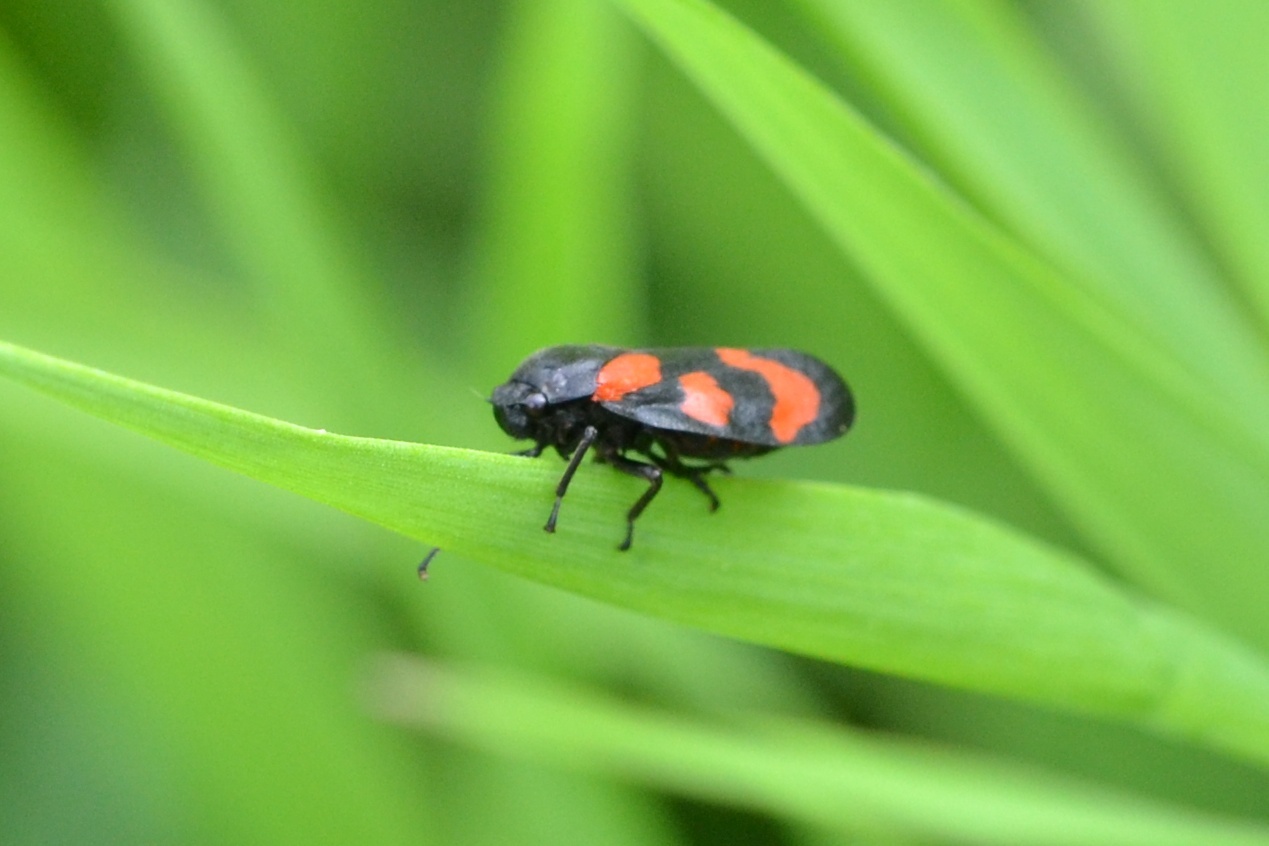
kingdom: Animalia
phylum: Arthropoda
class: Insecta
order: Hemiptera
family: Cercopidae
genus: Cercopis
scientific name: Cercopis vulnerata
